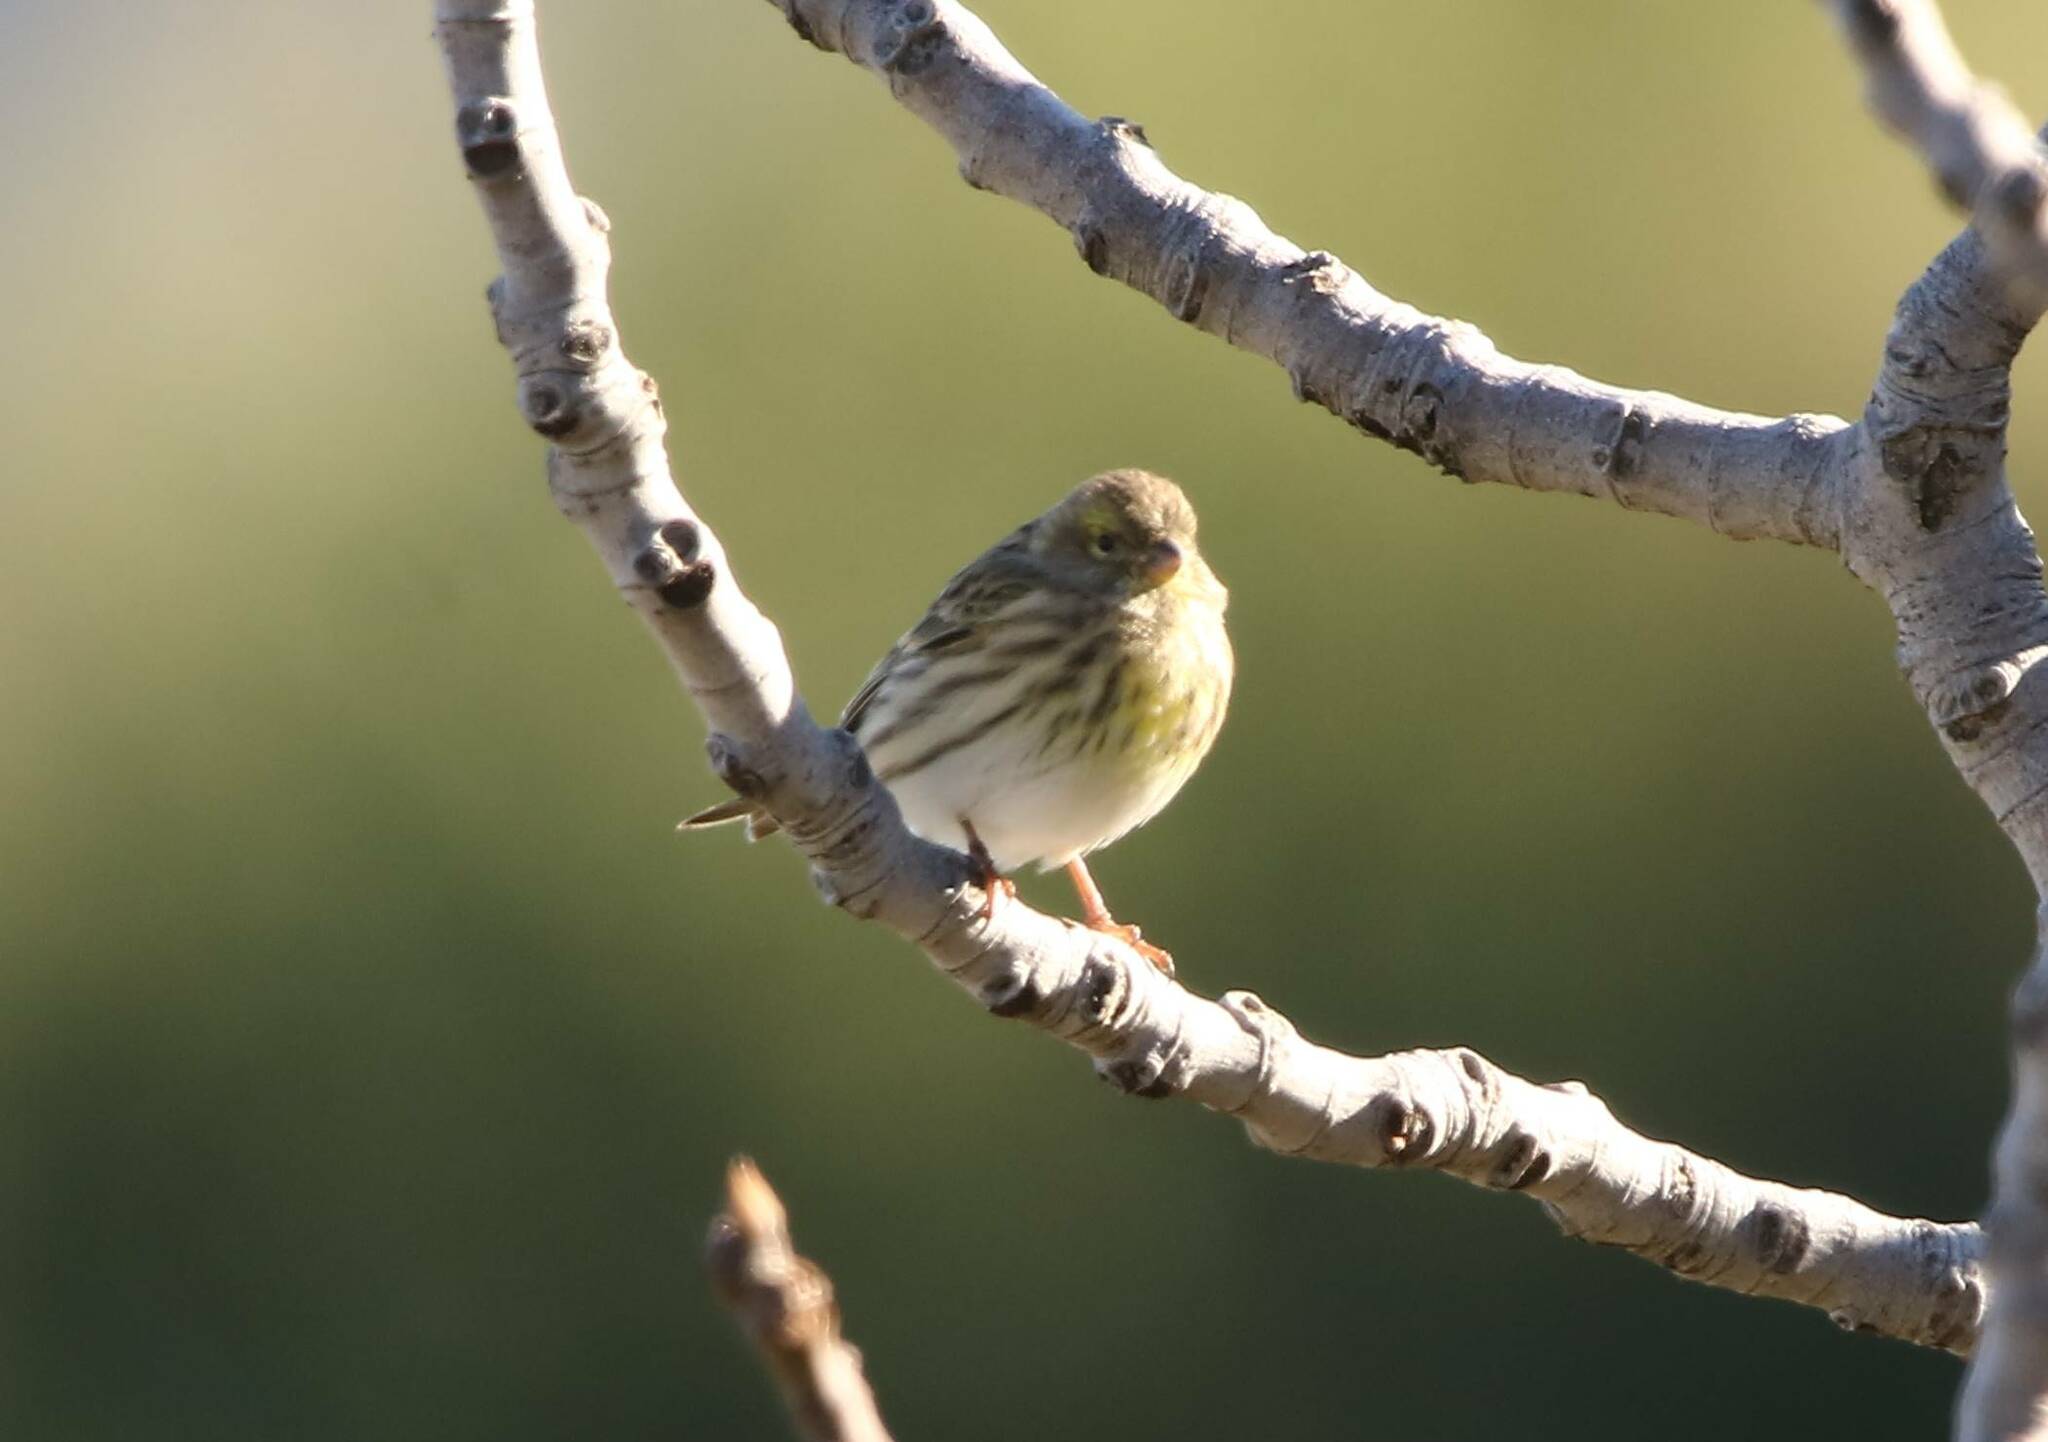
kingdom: Animalia
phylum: Chordata
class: Aves
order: Passeriformes
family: Fringillidae
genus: Serinus
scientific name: Serinus serinus
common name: European serin
